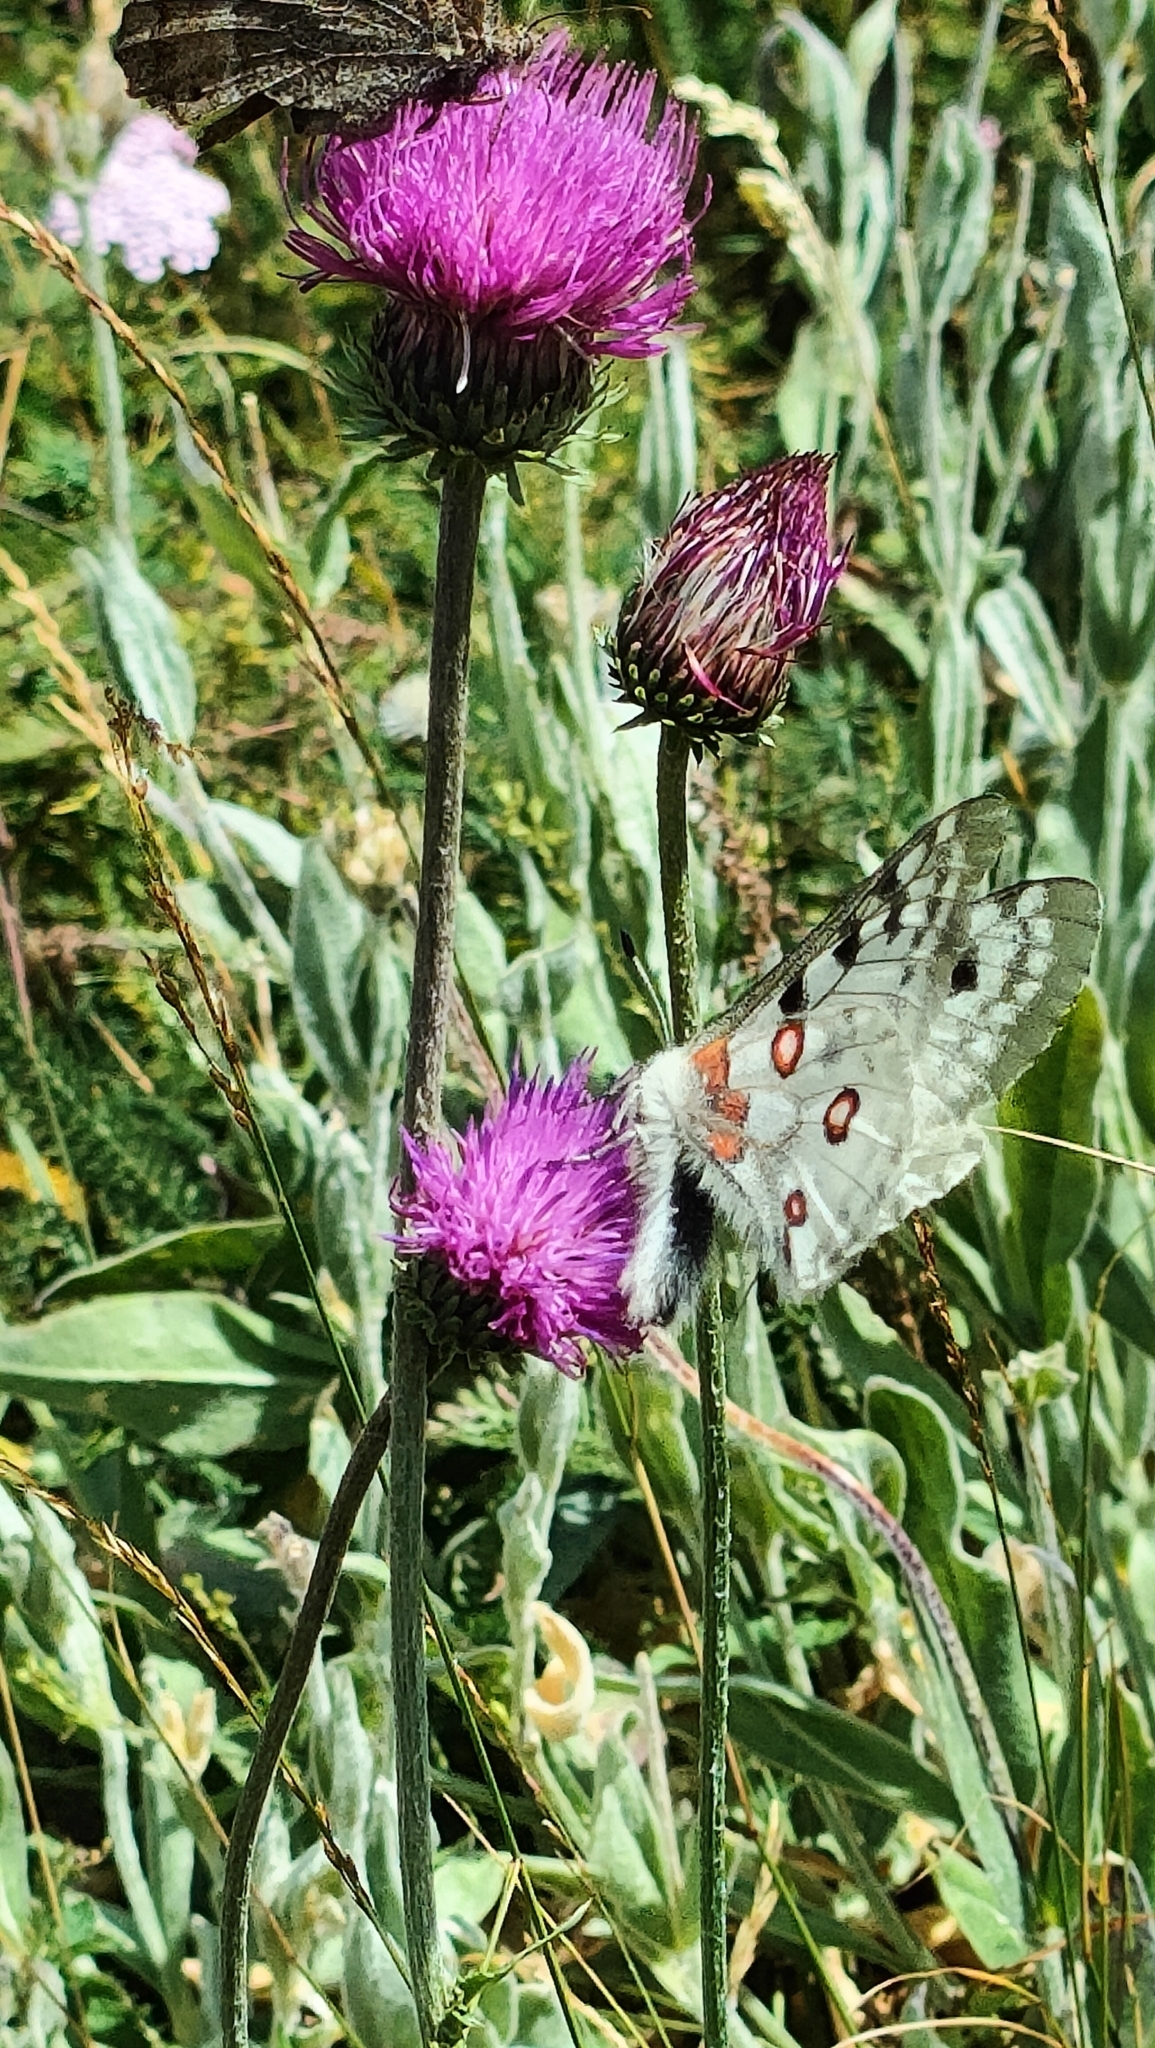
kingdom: Animalia
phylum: Arthropoda
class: Insecta
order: Lepidoptera
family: Papilionidae
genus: Parnassius
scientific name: Parnassius apollo
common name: Apollo
